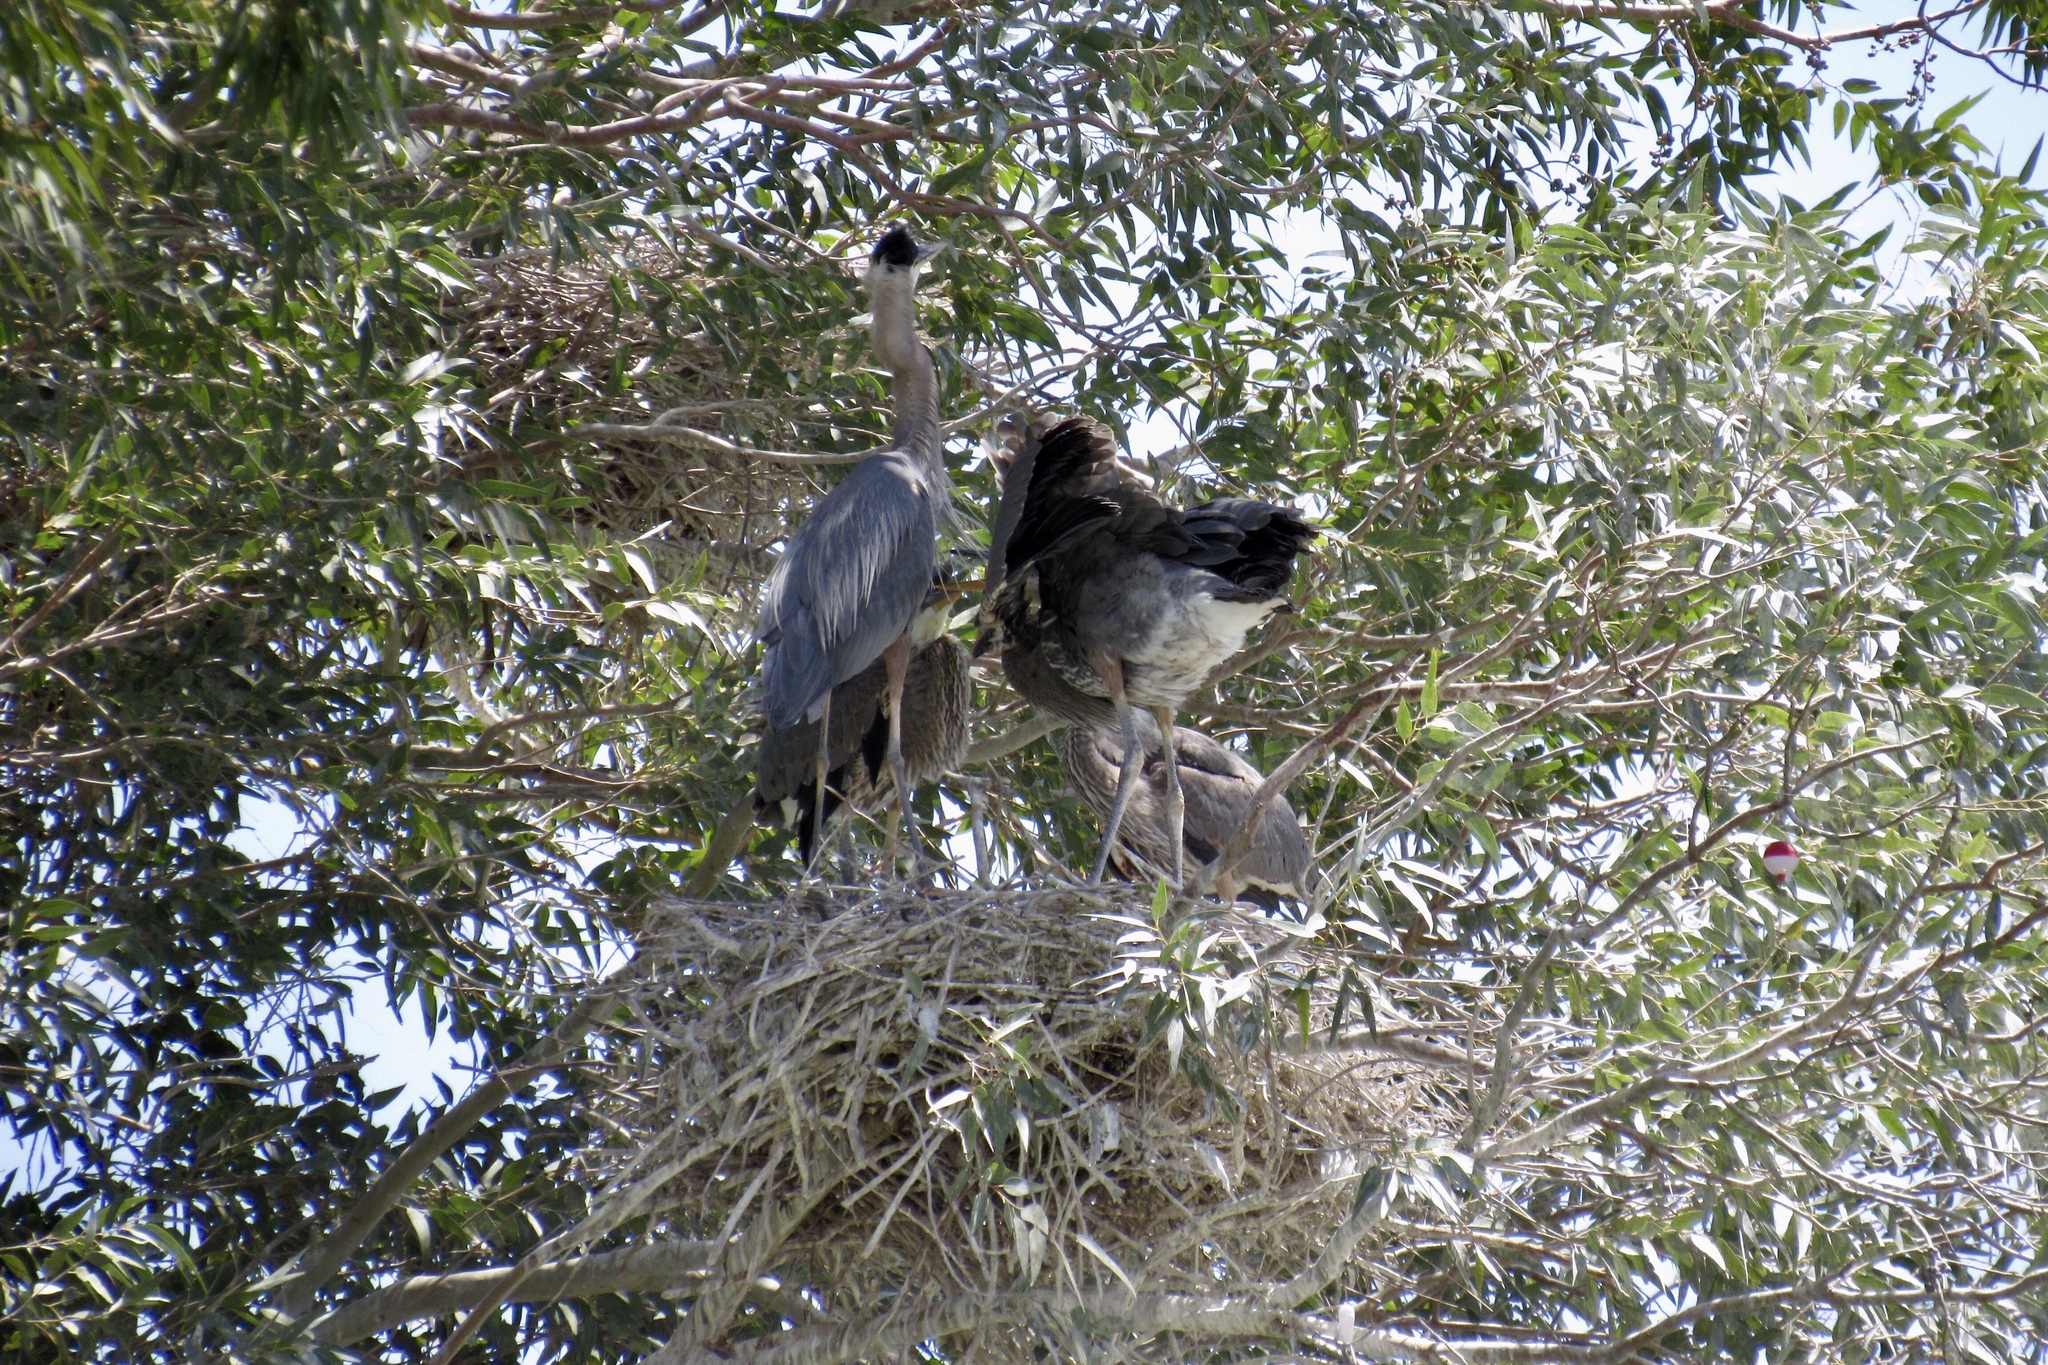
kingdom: Animalia
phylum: Chordata
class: Aves
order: Pelecaniformes
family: Ardeidae
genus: Ardea
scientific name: Ardea herodias
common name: Great blue heron
